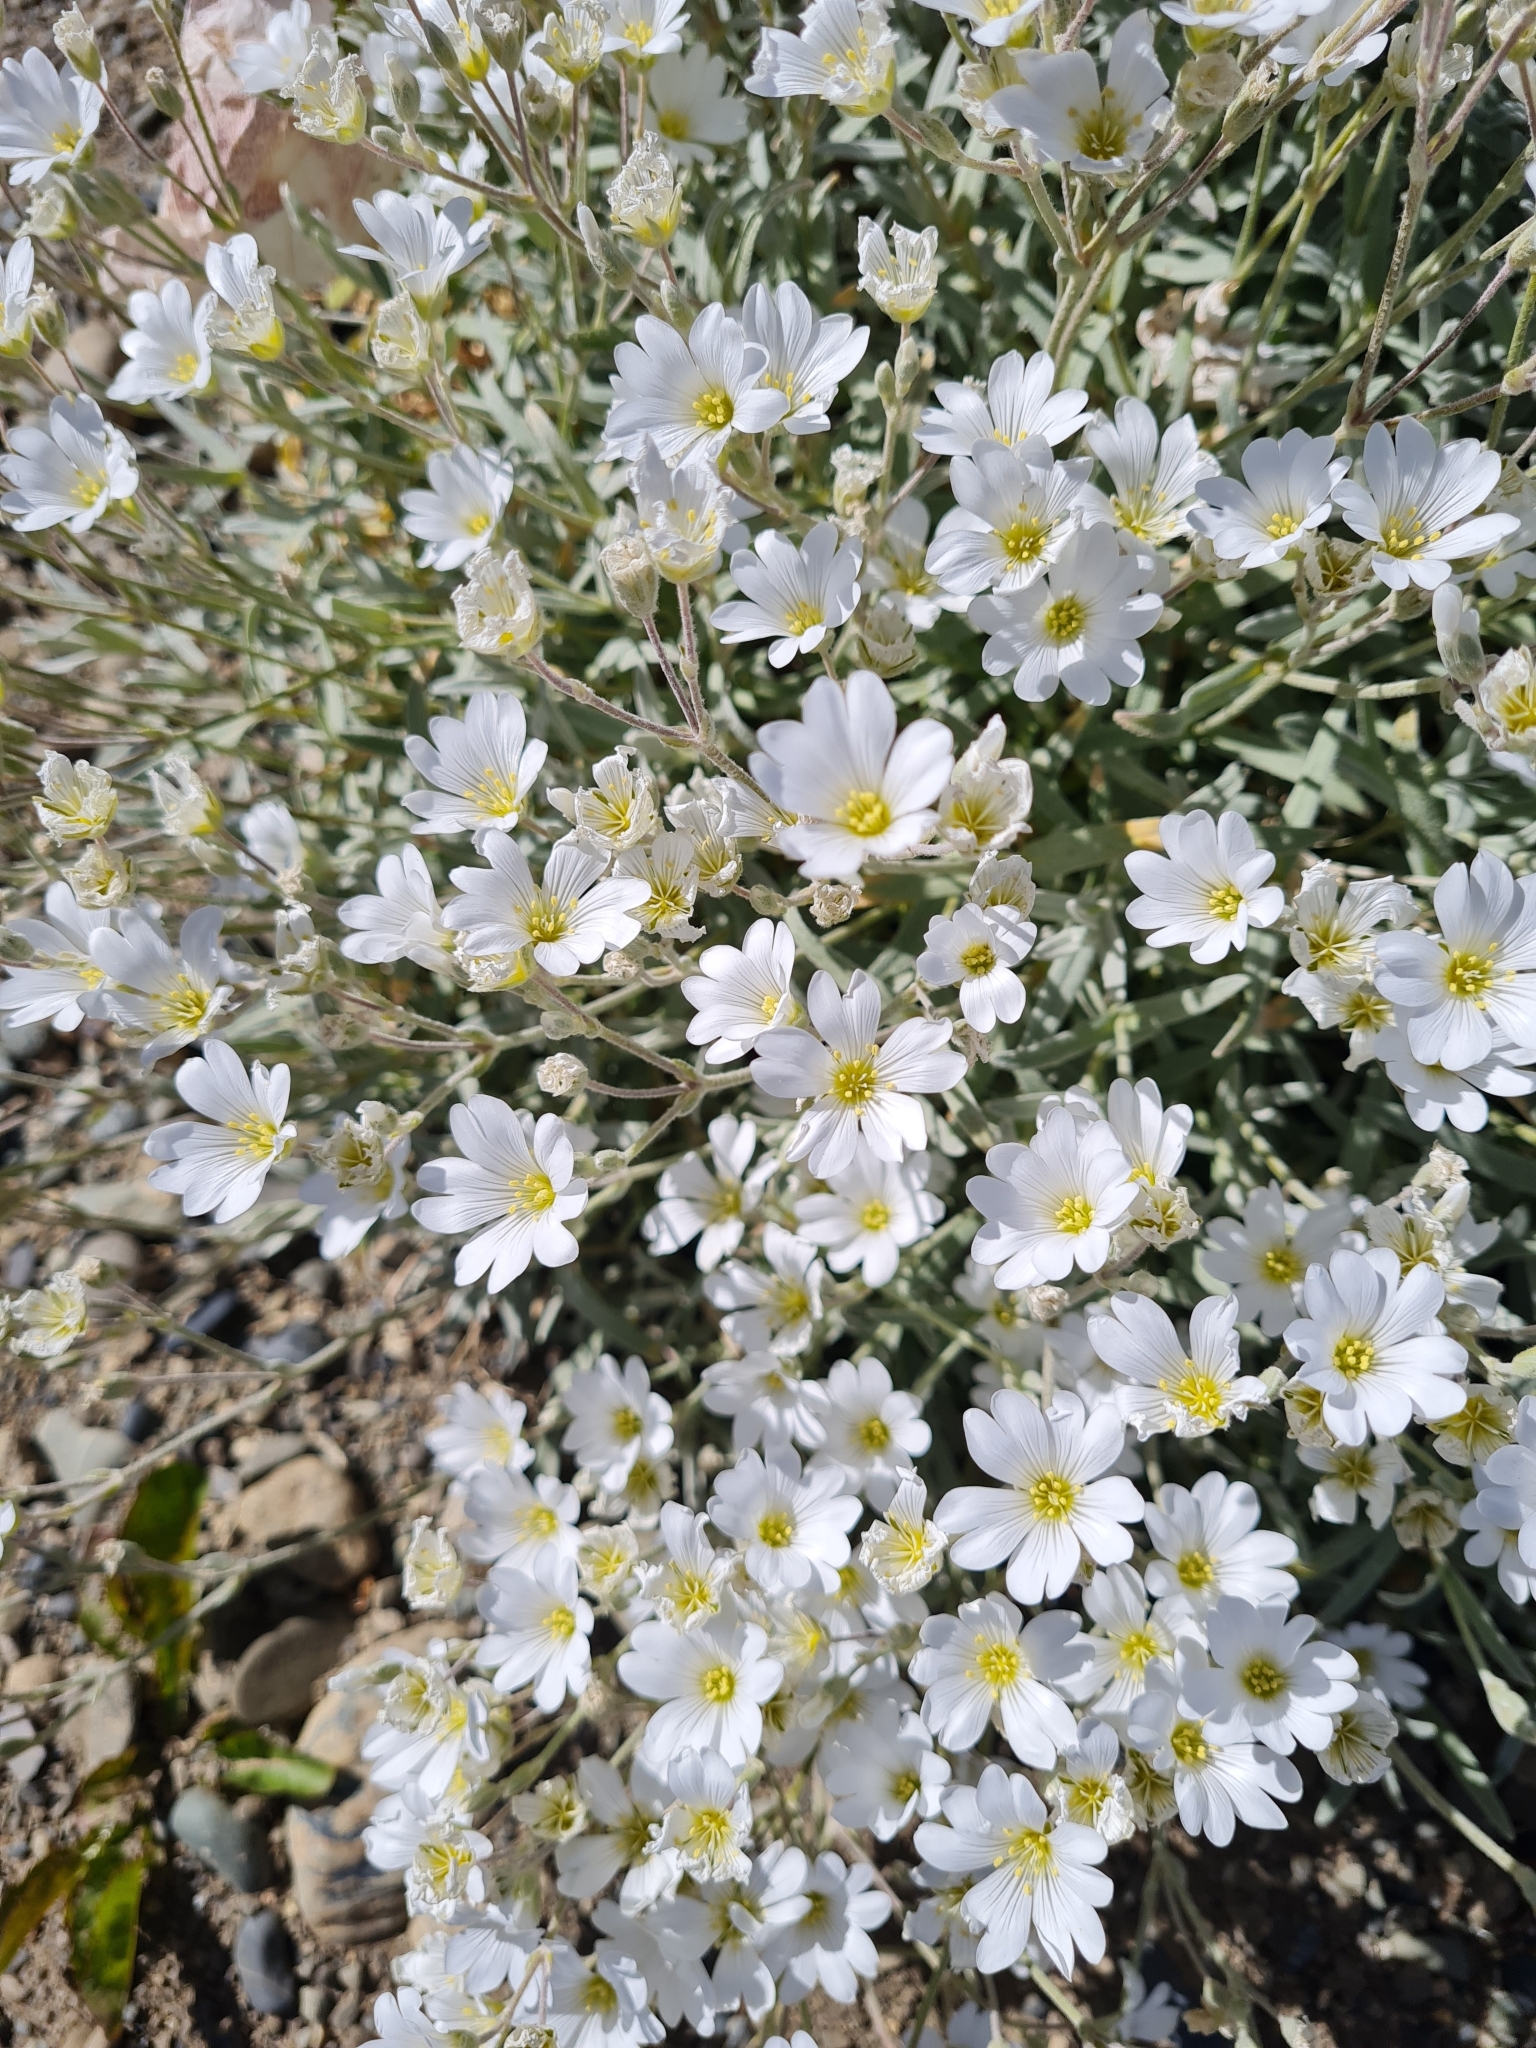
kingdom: Plantae
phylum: Tracheophyta
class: Magnoliopsida
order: Caryophyllales
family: Caryophyllaceae
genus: Cerastium
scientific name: Cerastium tomentosum
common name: Snow-in-summer
